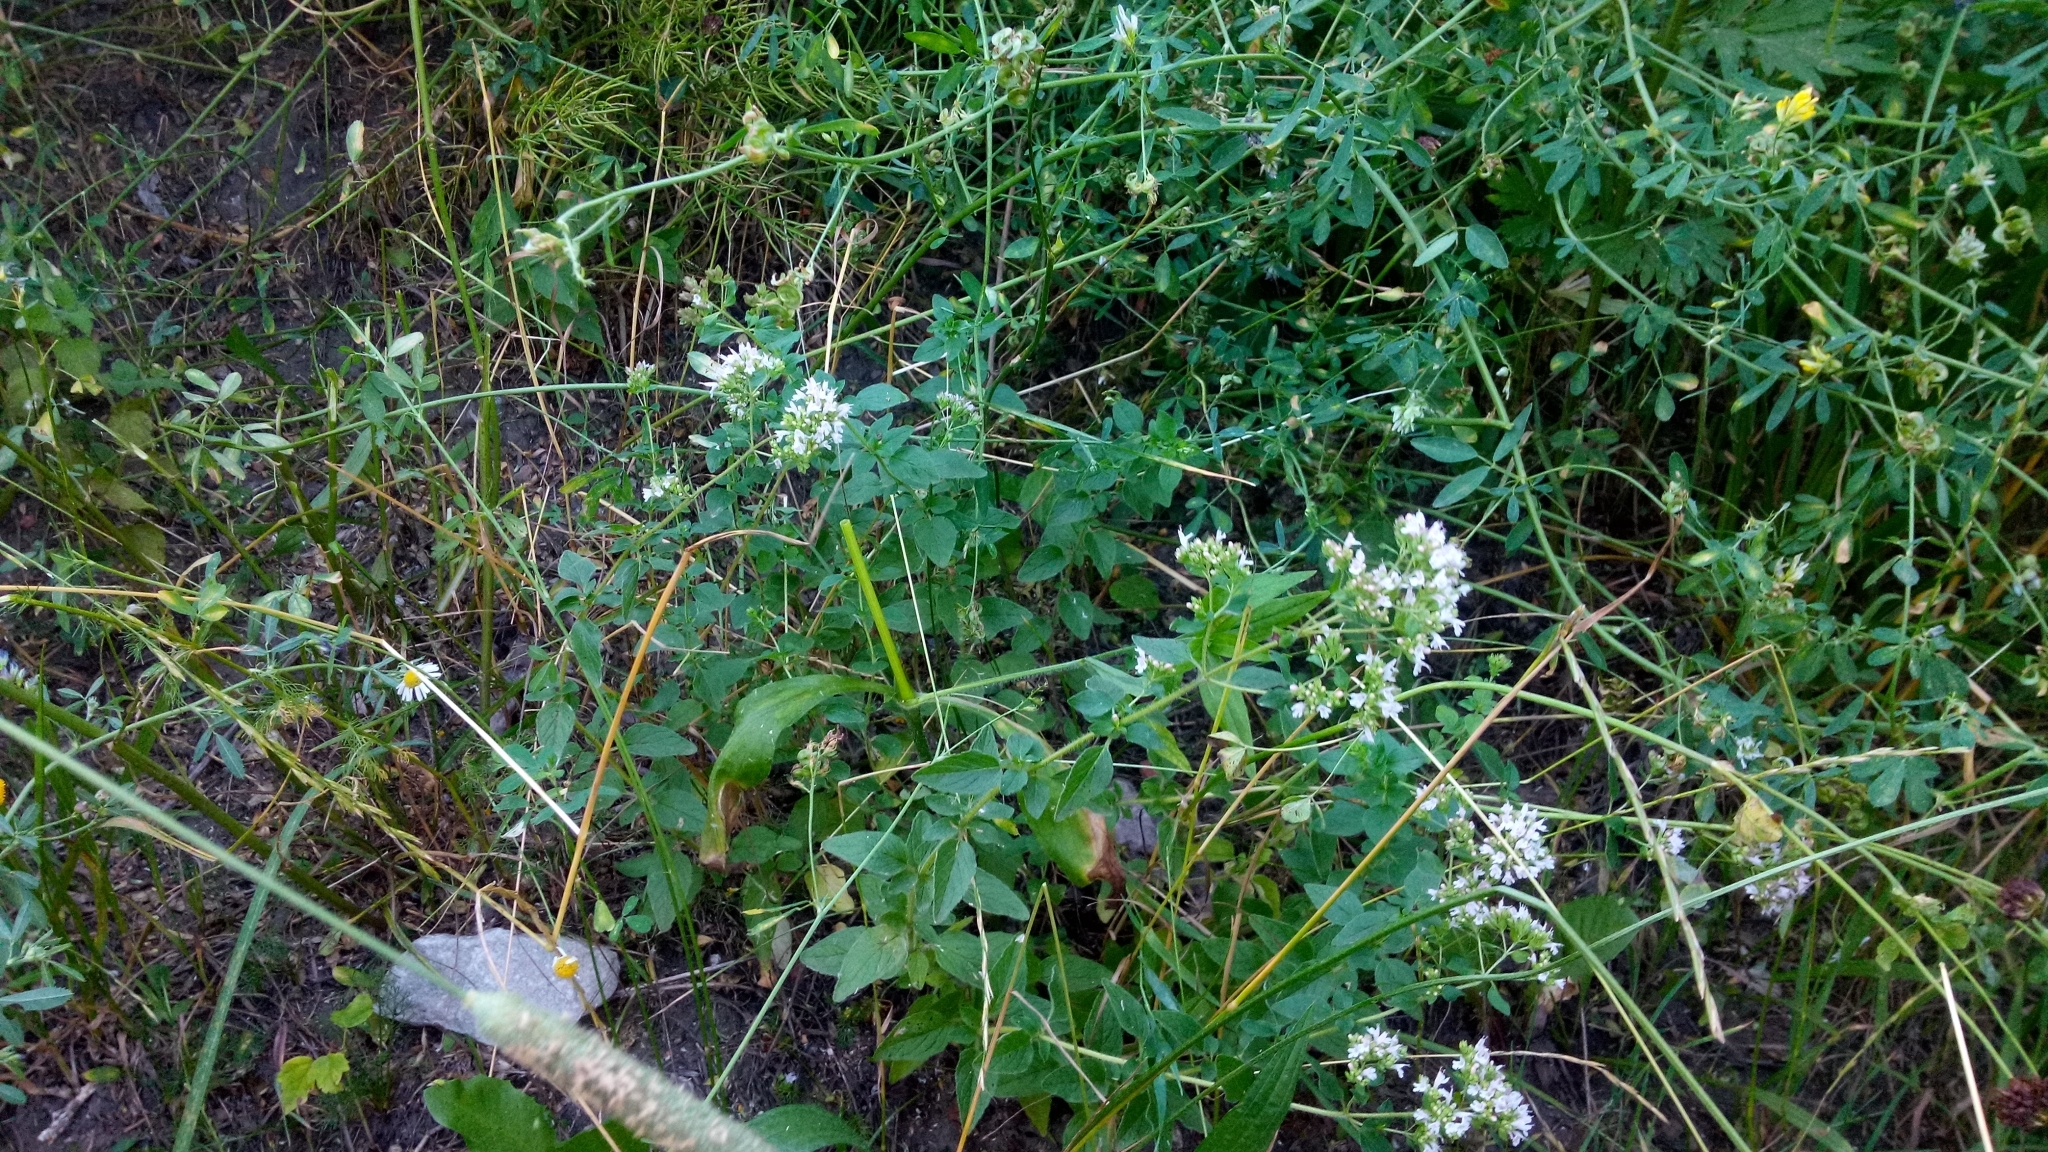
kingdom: Plantae
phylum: Tracheophyta
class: Magnoliopsida
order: Lamiales
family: Lamiaceae
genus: Origanum
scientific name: Origanum vulgare
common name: Wild marjoram
